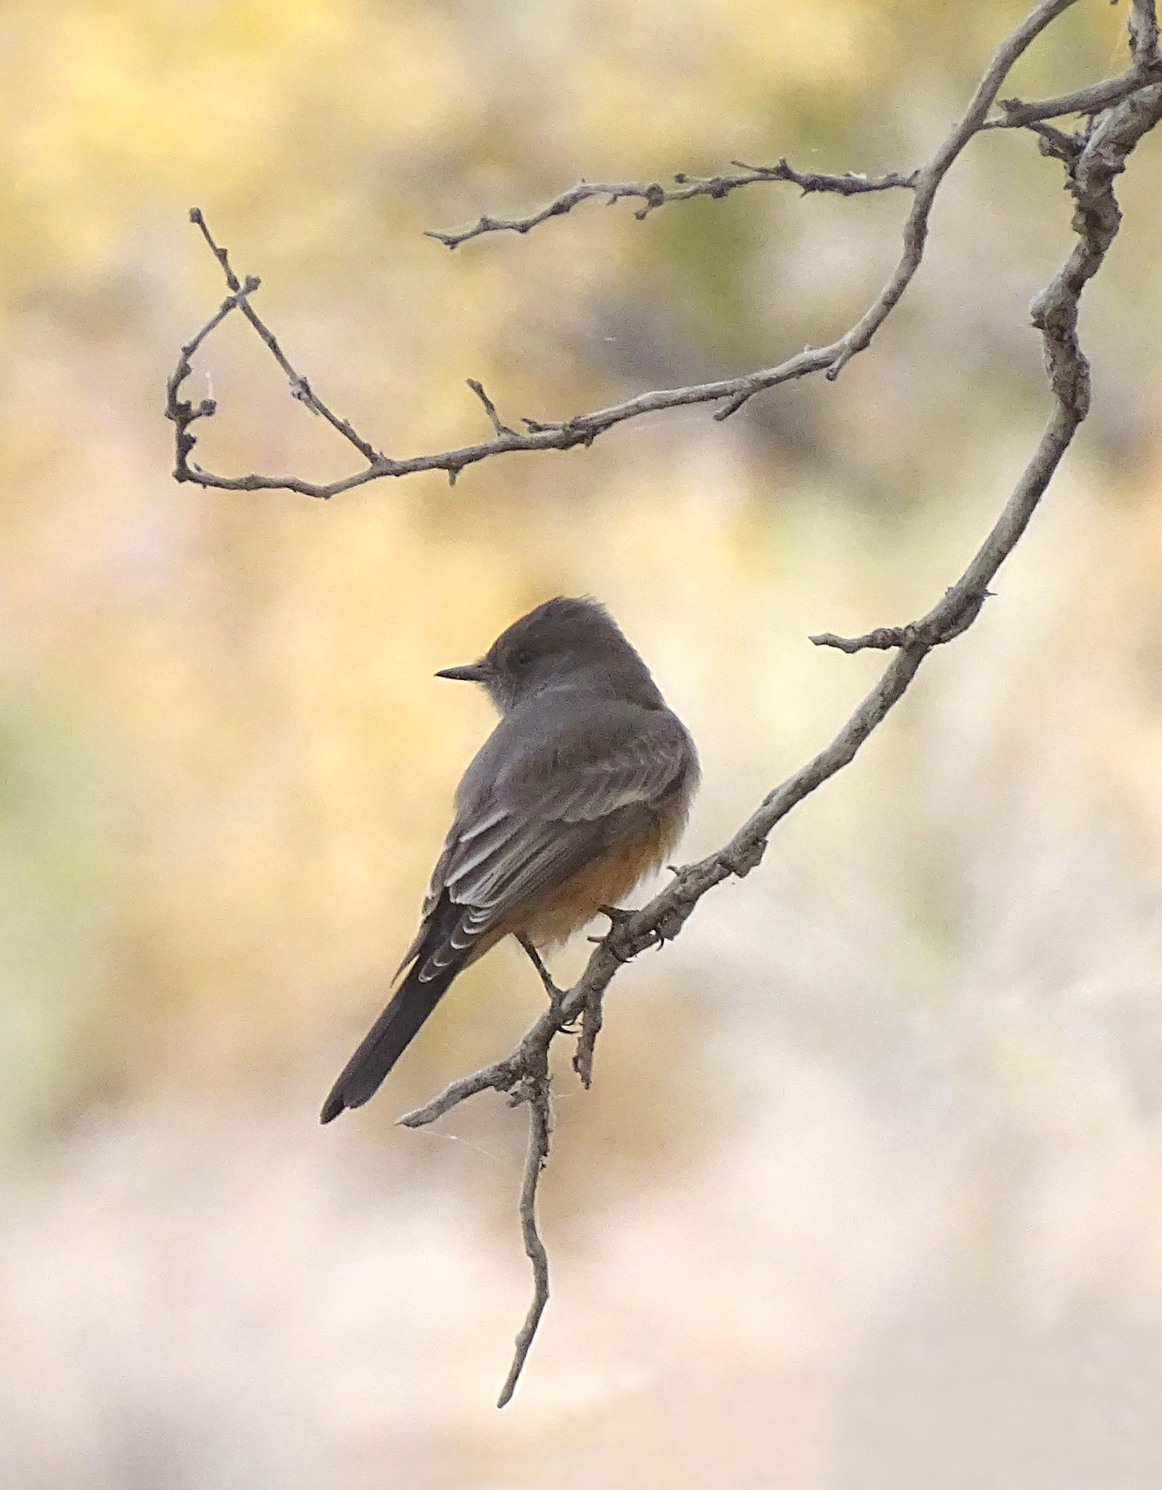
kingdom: Animalia
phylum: Chordata
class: Aves
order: Passeriformes
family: Tyrannidae
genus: Sayornis
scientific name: Sayornis saya
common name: Say's phoebe
